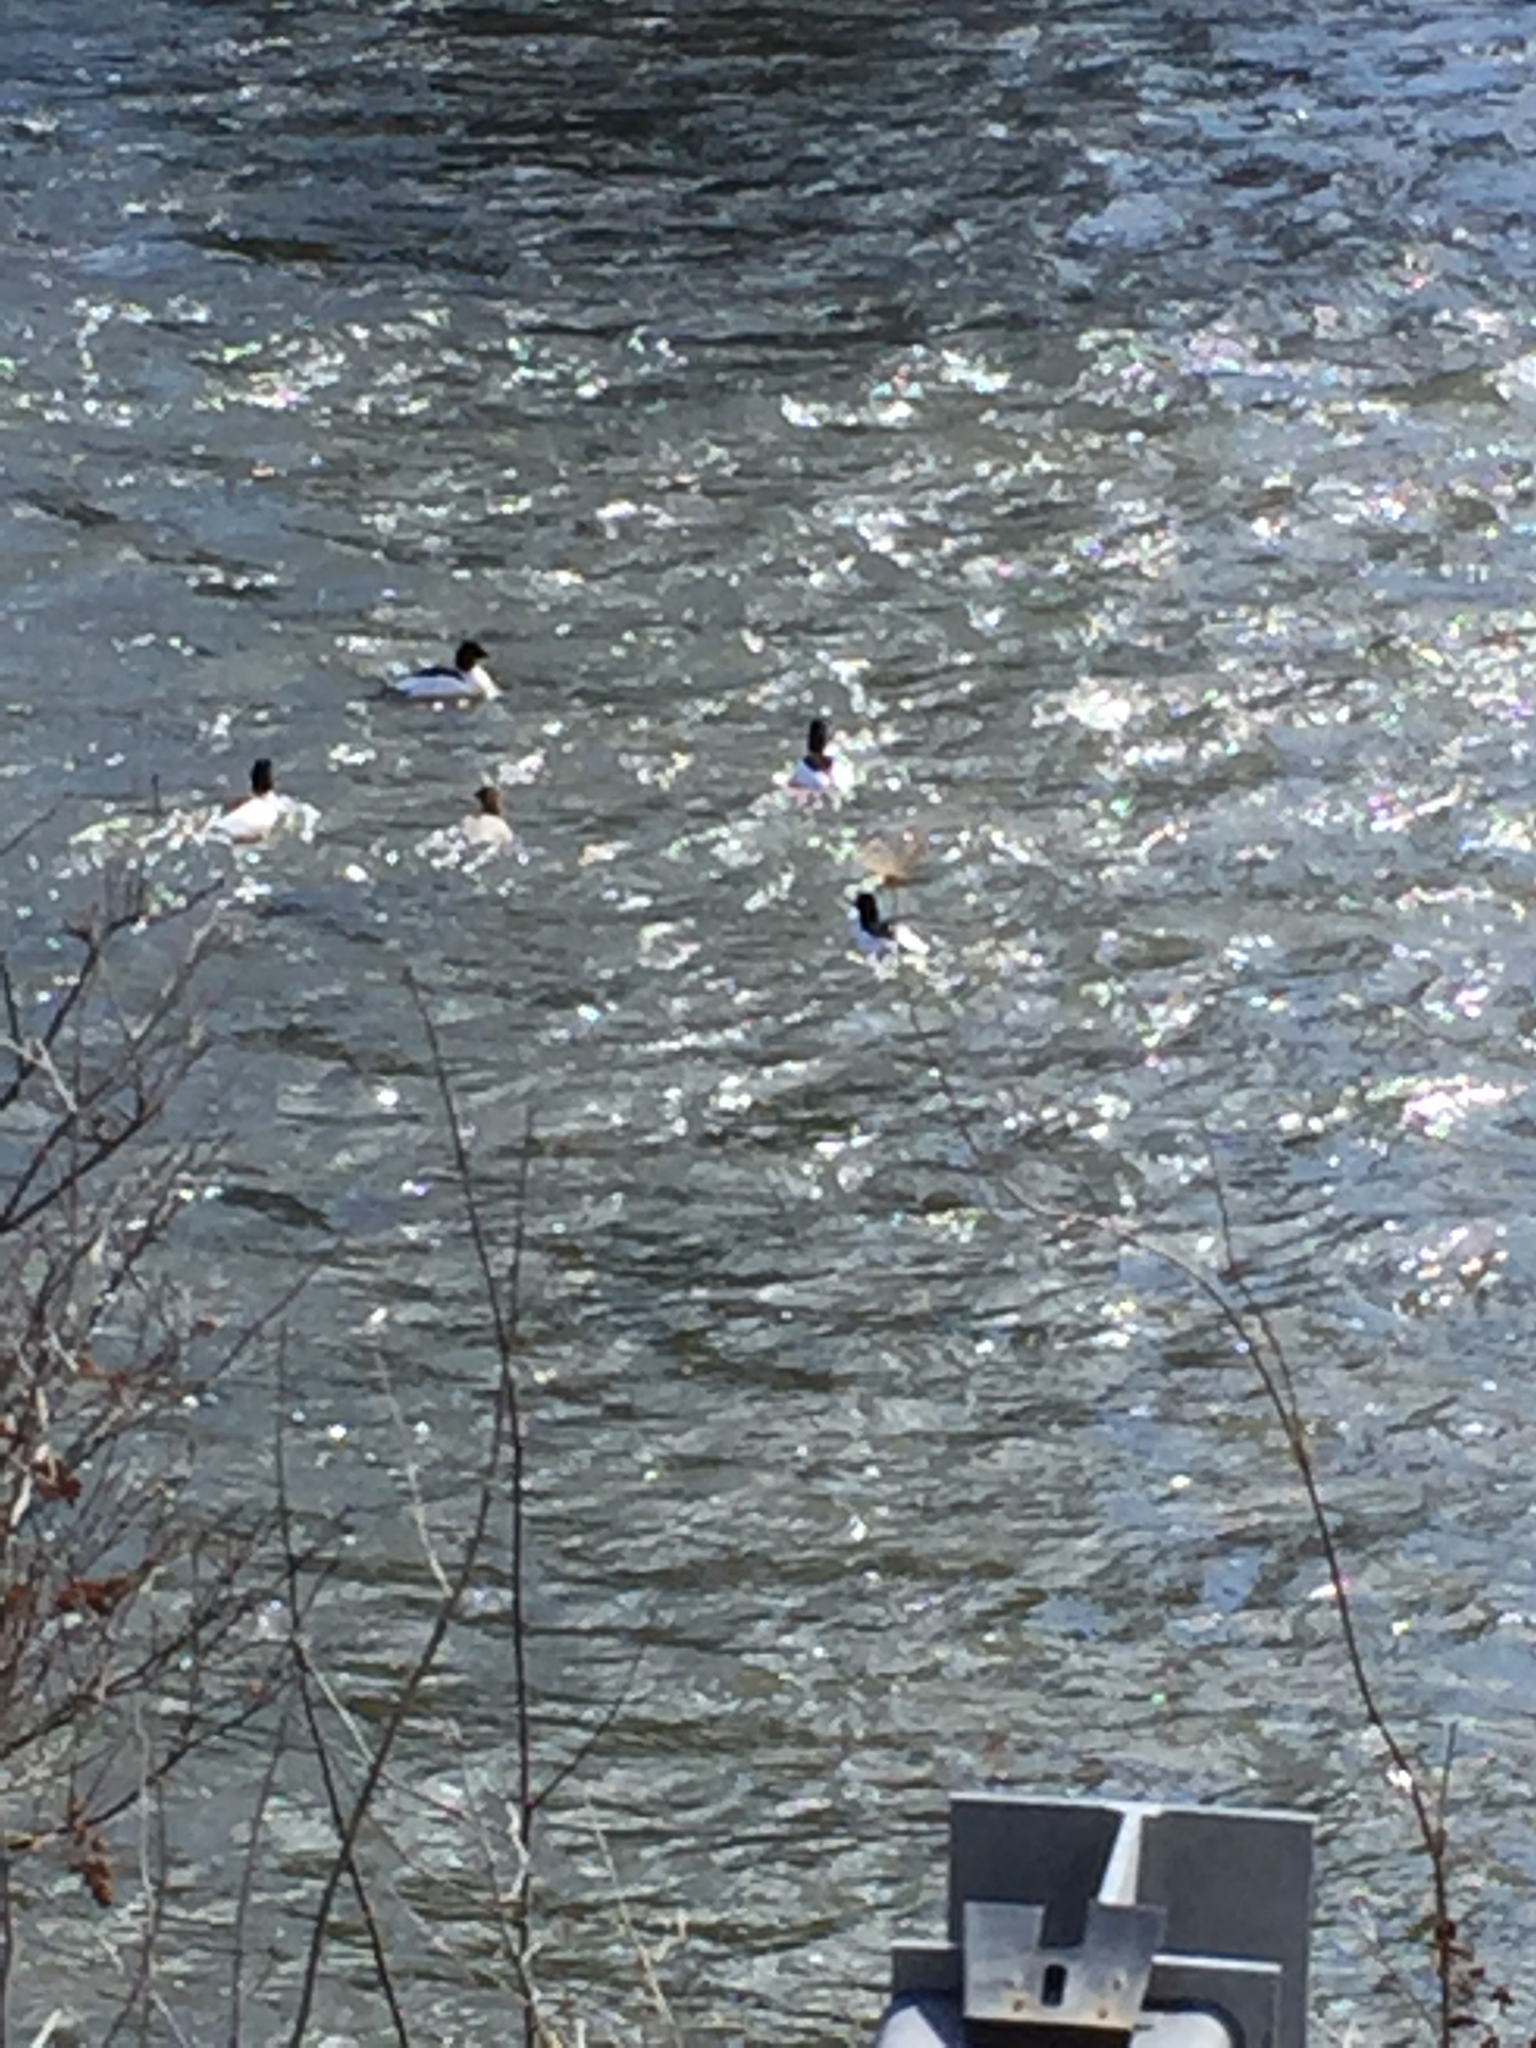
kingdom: Animalia
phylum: Chordata
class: Aves
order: Anseriformes
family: Anatidae
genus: Mergus
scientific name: Mergus merganser
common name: Common merganser
